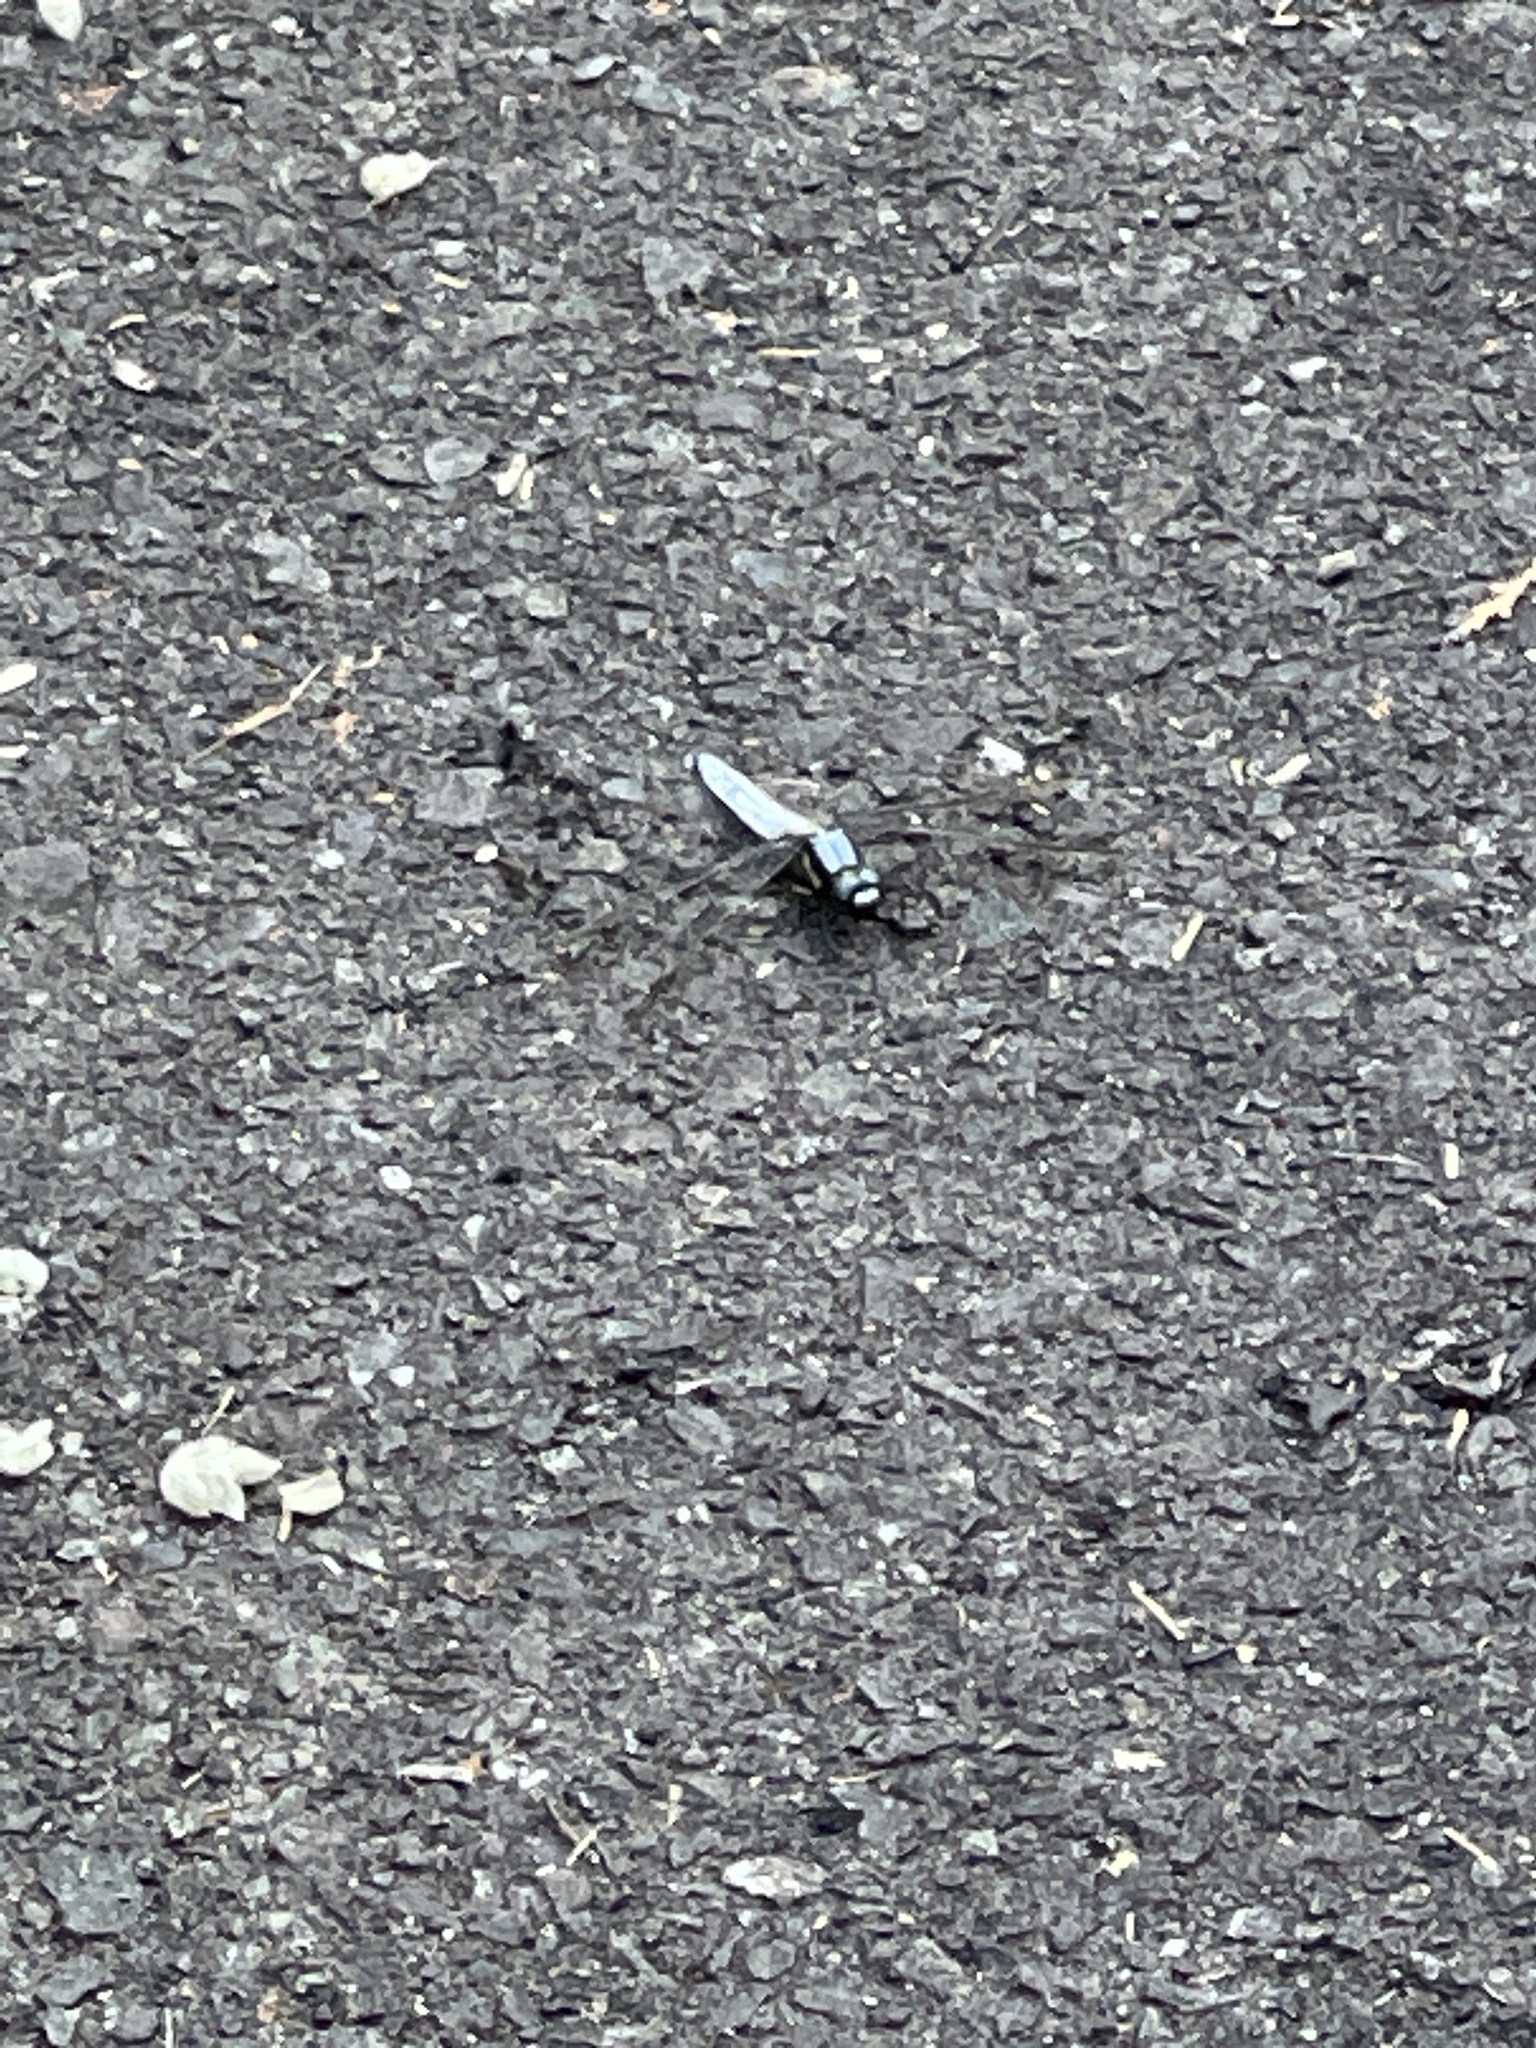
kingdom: Animalia
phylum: Arthropoda
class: Insecta
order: Odonata
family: Libellulidae
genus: Orthetrum
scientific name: Orthetrum japonicum
